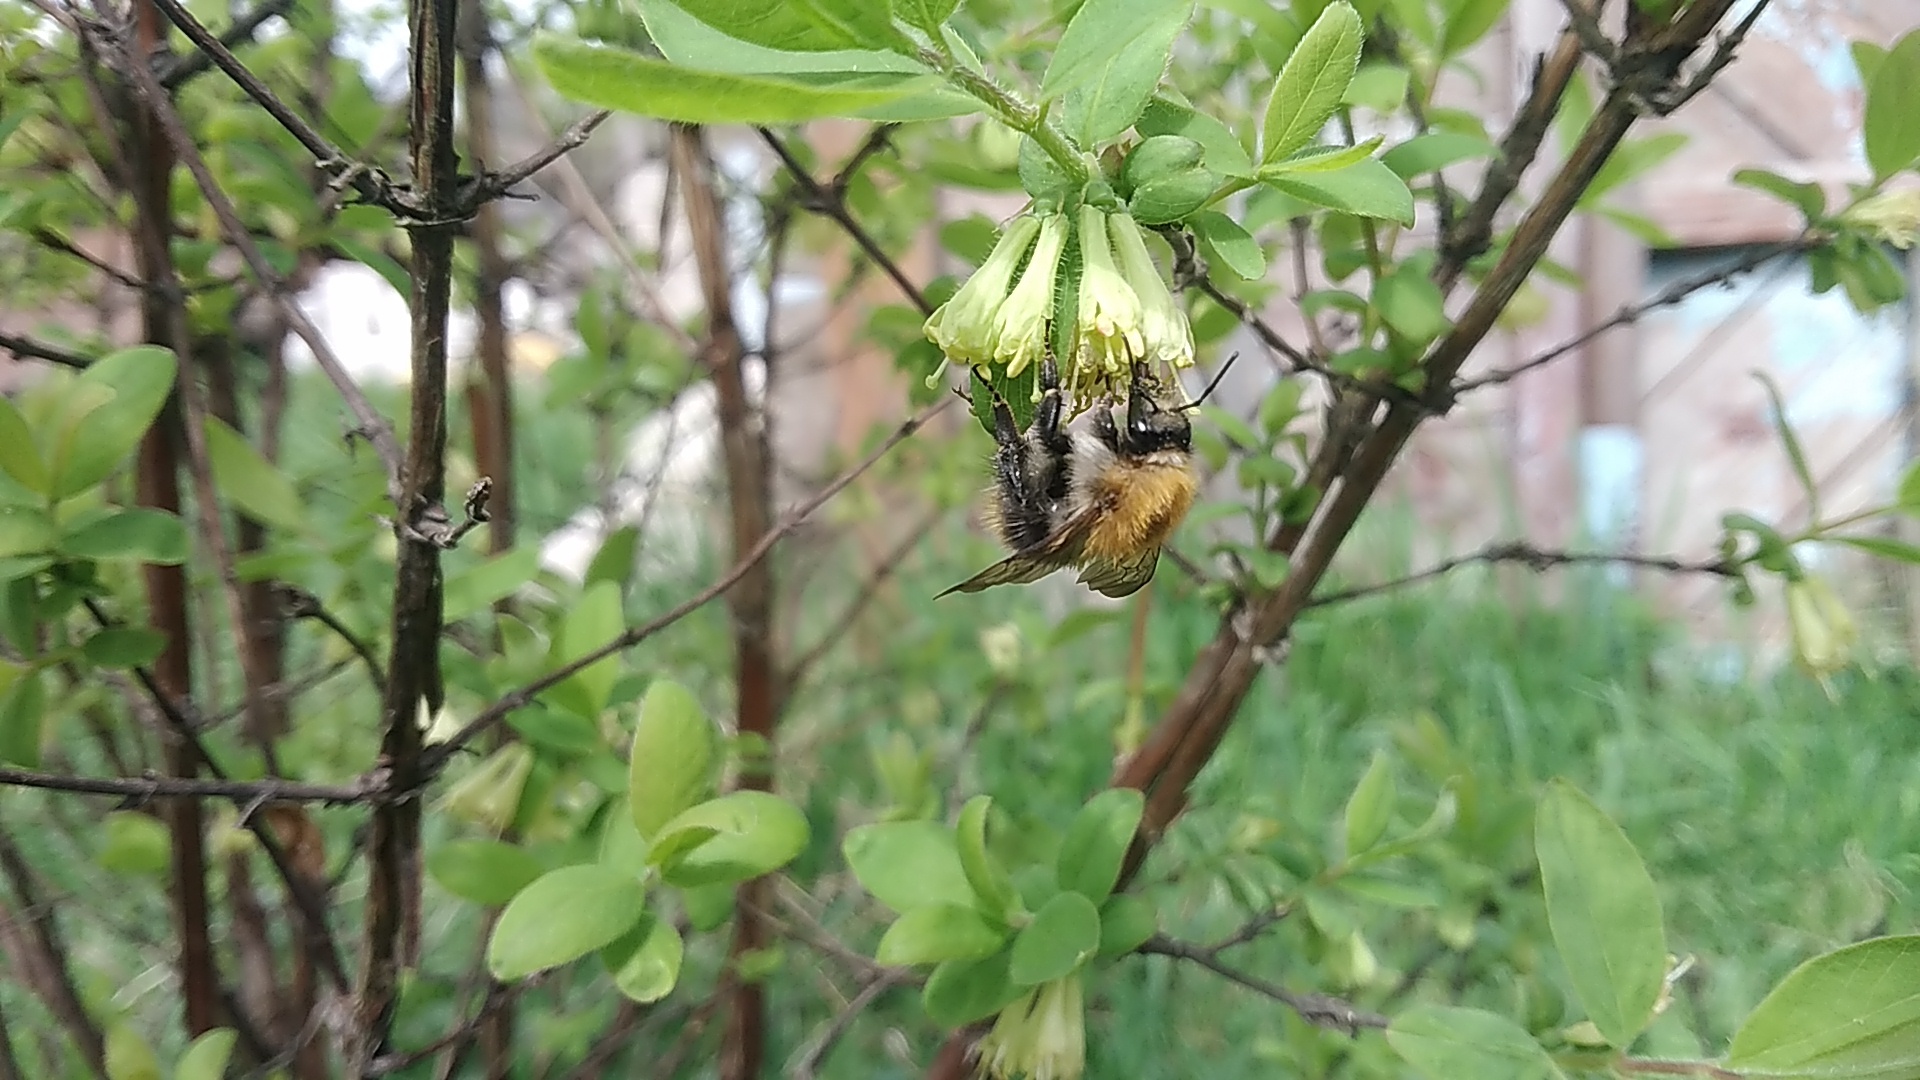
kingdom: Animalia
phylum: Arthropoda
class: Insecta
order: Hymenoptera
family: Apidae
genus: Bombus
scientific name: Bombus pascuorum
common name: Common carder bee
